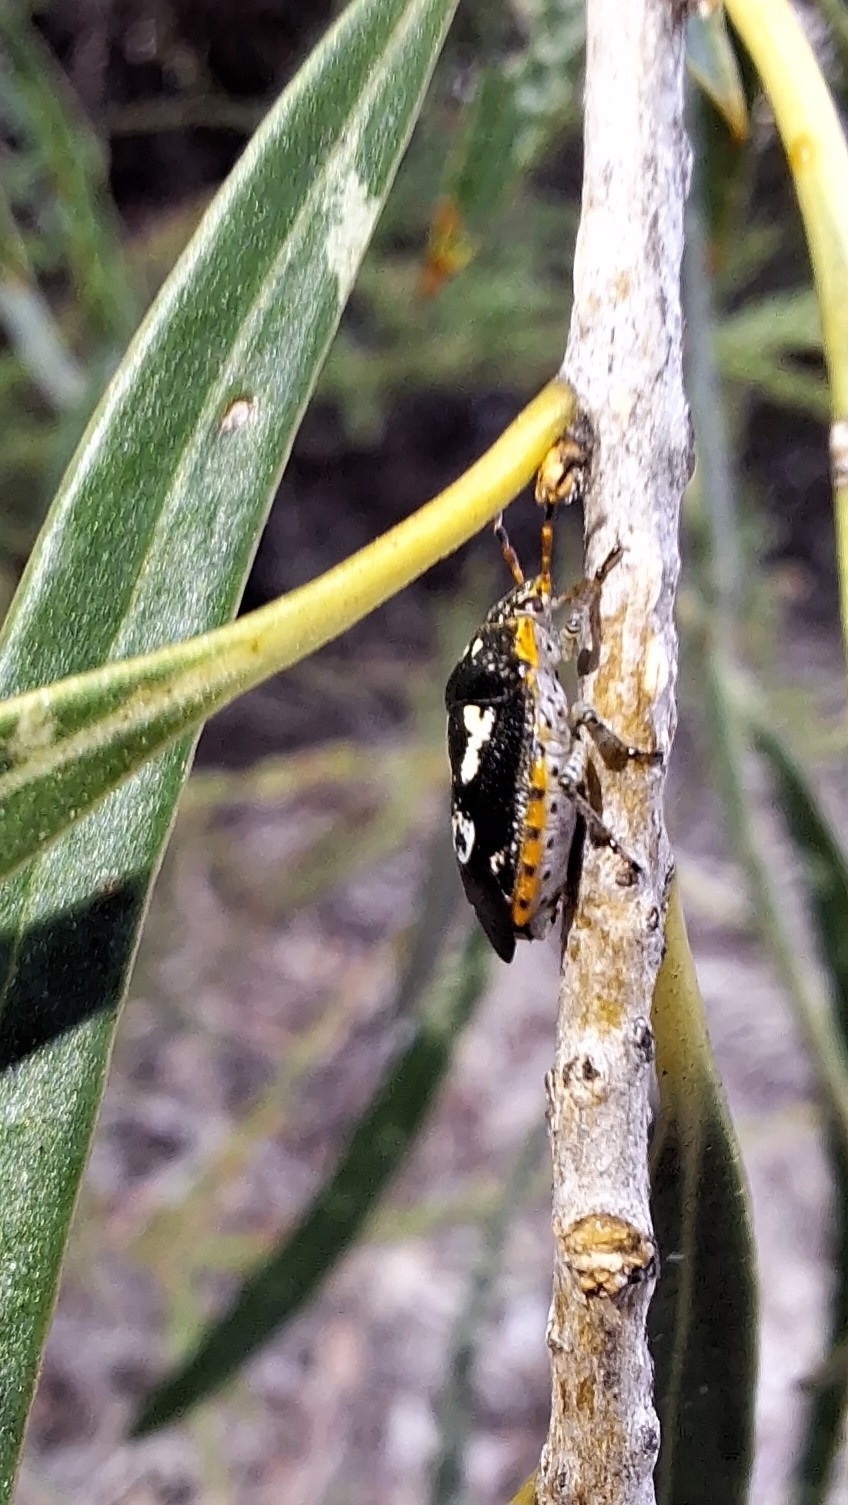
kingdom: Animalia
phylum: Arthropoda
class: Insecta
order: Hemiptera
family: Pentatomidae
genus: Pseudapines
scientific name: Pseudapines
